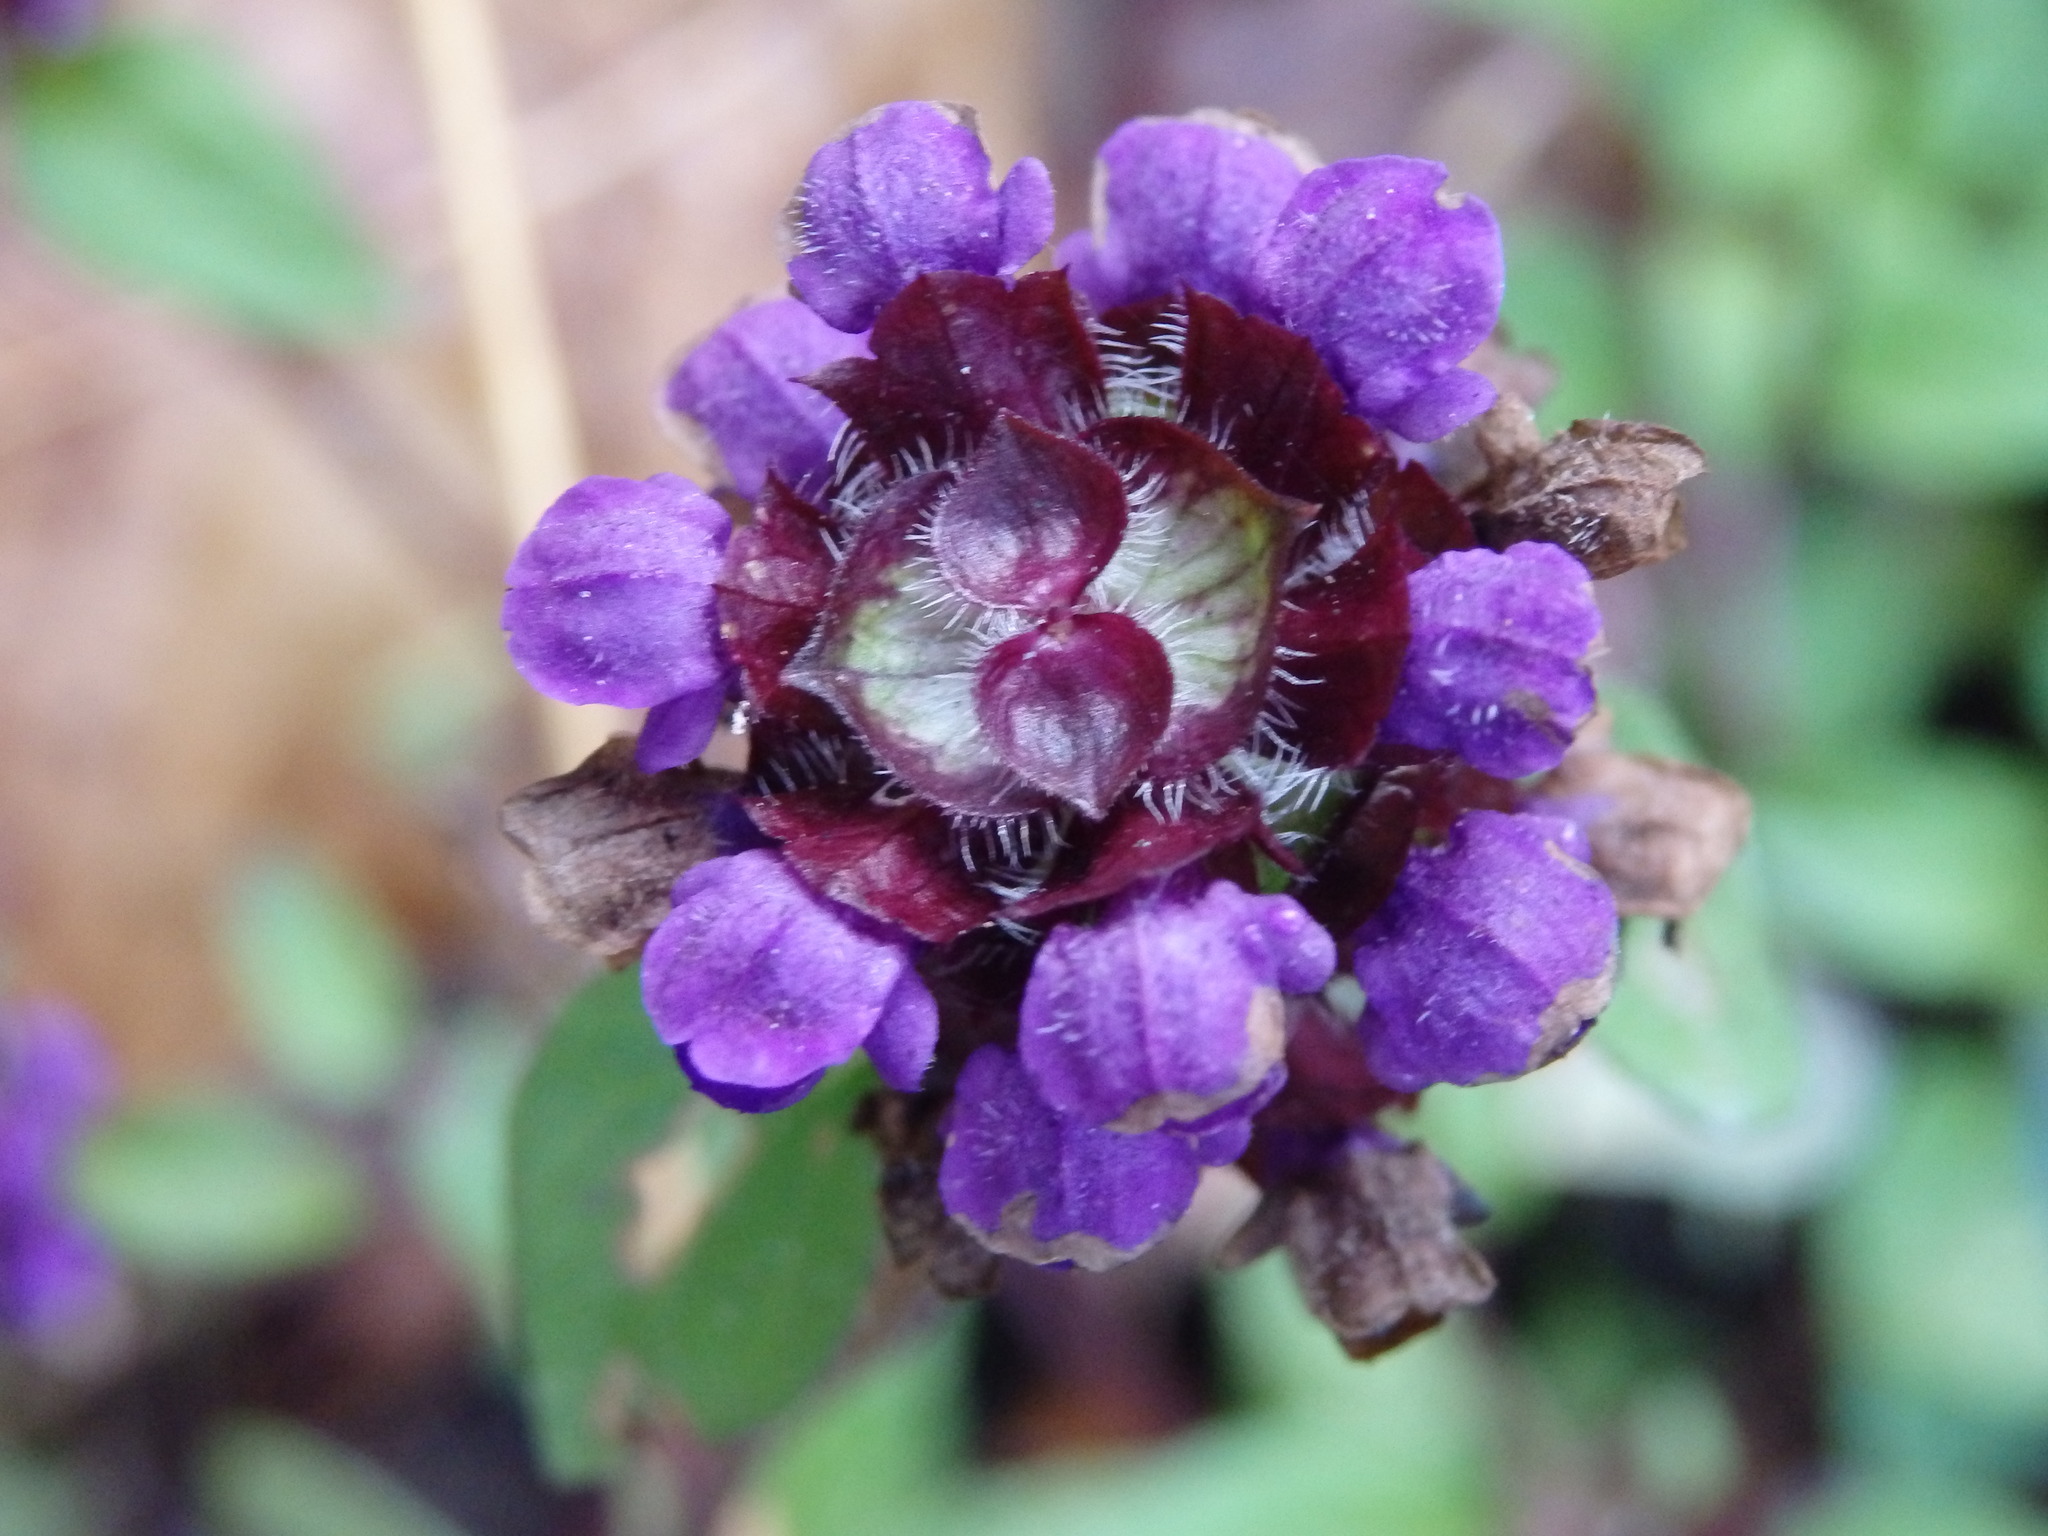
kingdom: Plantae
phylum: Tracheophyta
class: Magnoliopsida
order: Lamiales
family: Lamiaceae
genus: Prunella
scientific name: Prunella vulgaris
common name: Heal-all
